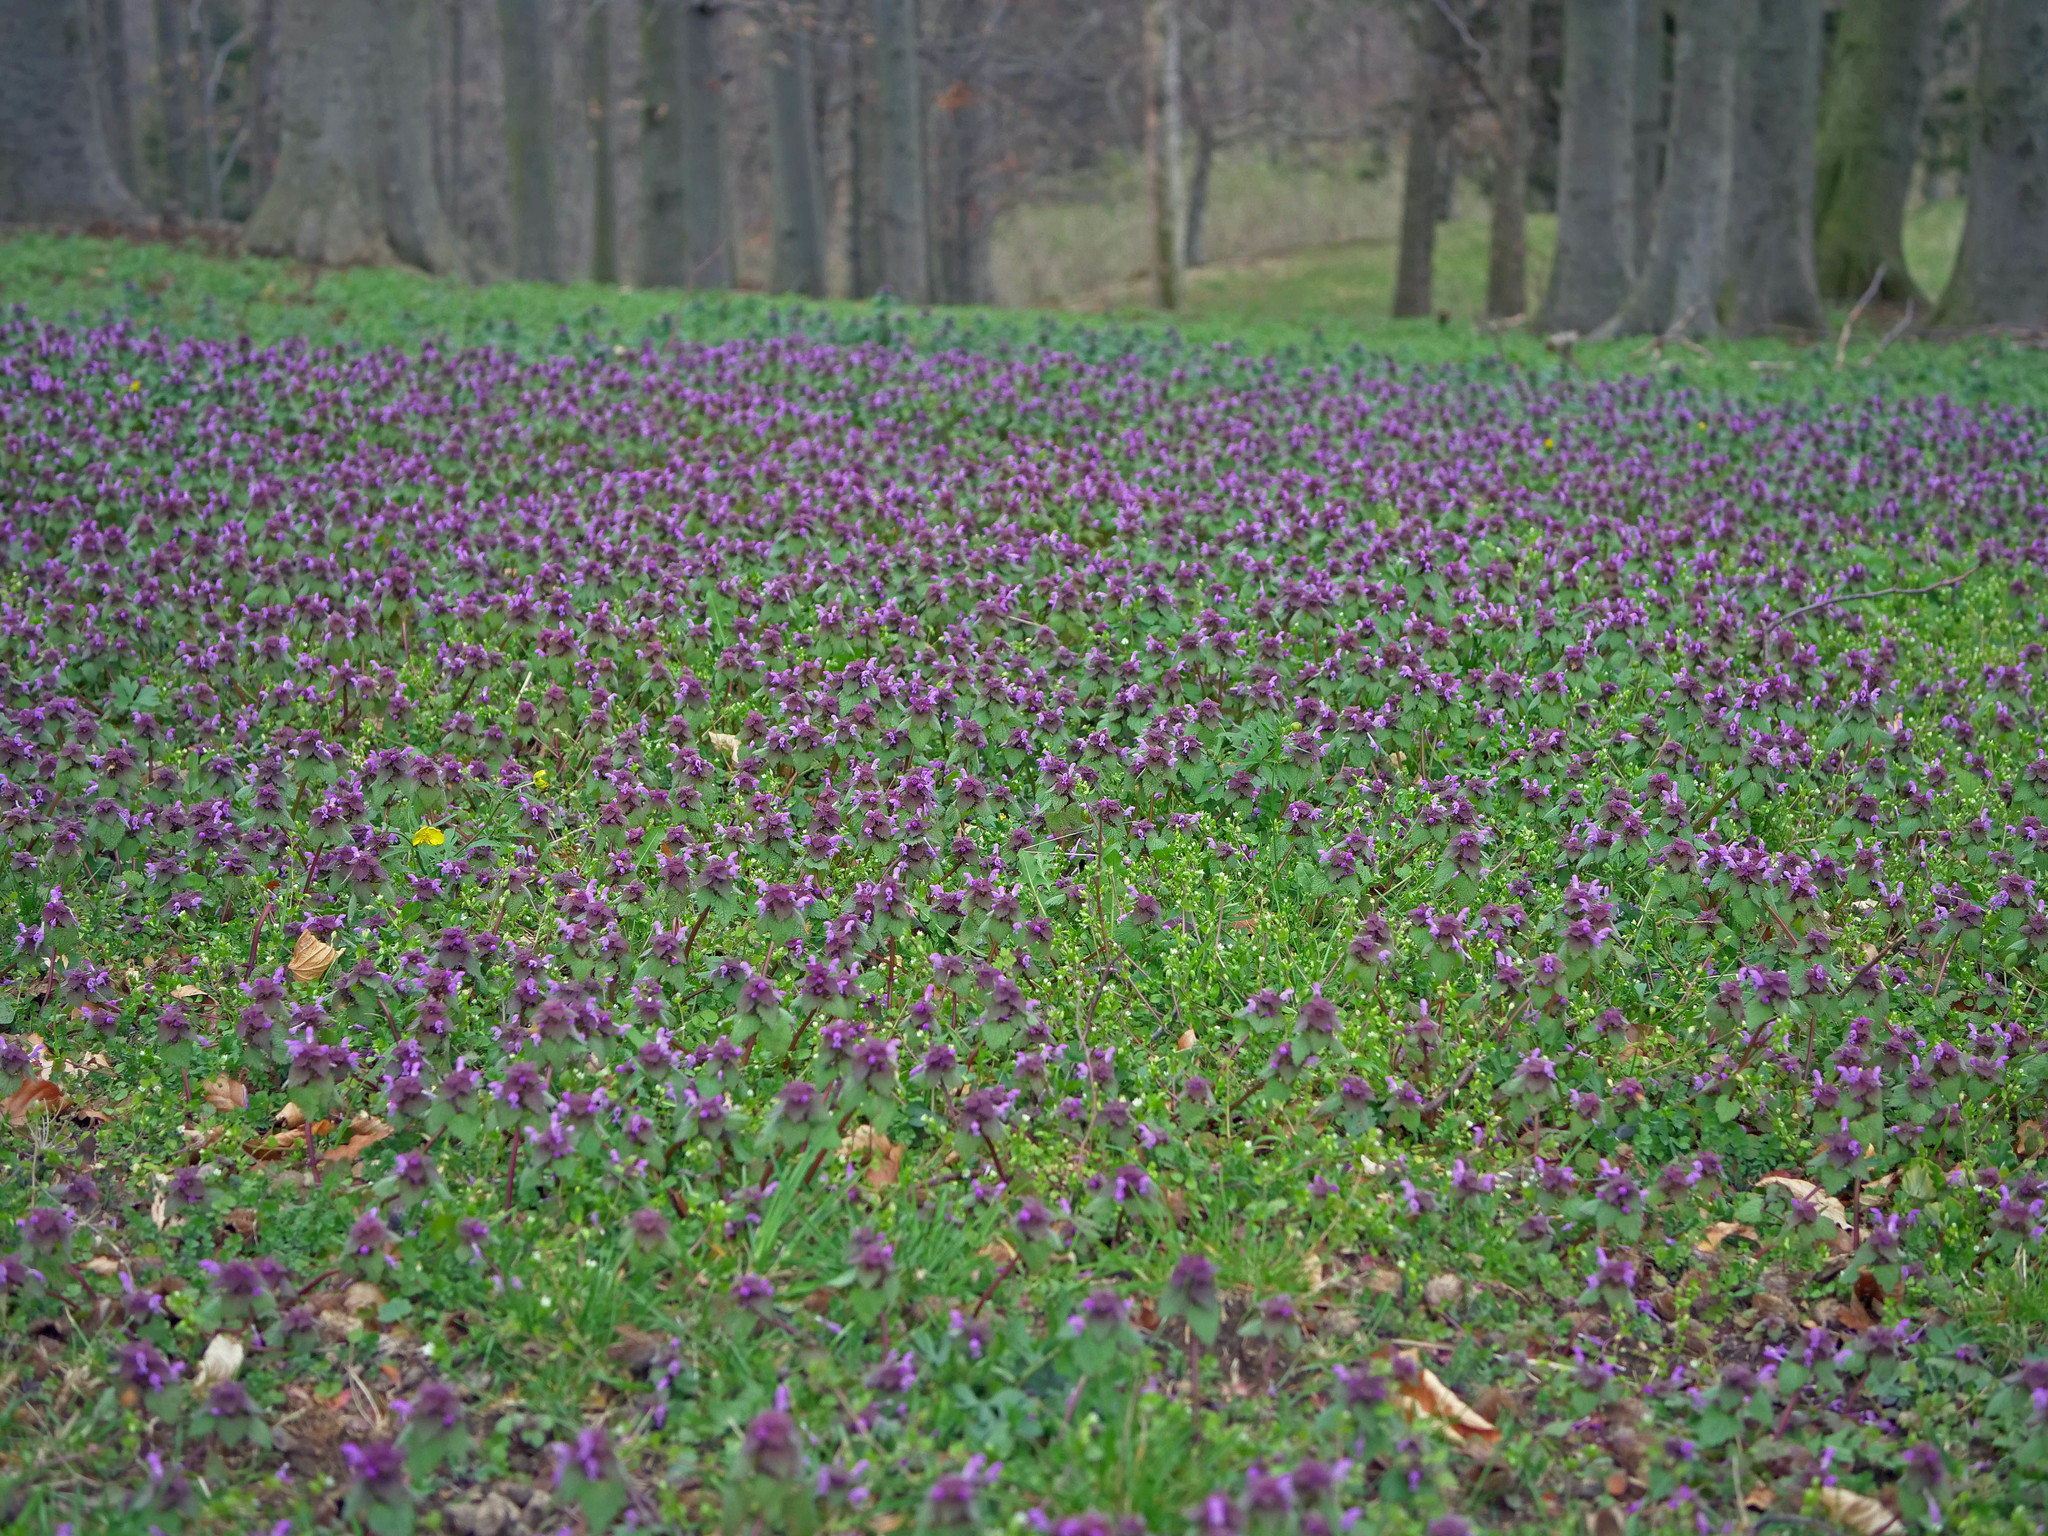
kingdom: Plantae
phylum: Tracheophyta
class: Magnoliopsida
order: Lamiales
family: Lamiaceae
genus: Lamium
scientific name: Lamium purpureum
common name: Red dead-nettle
